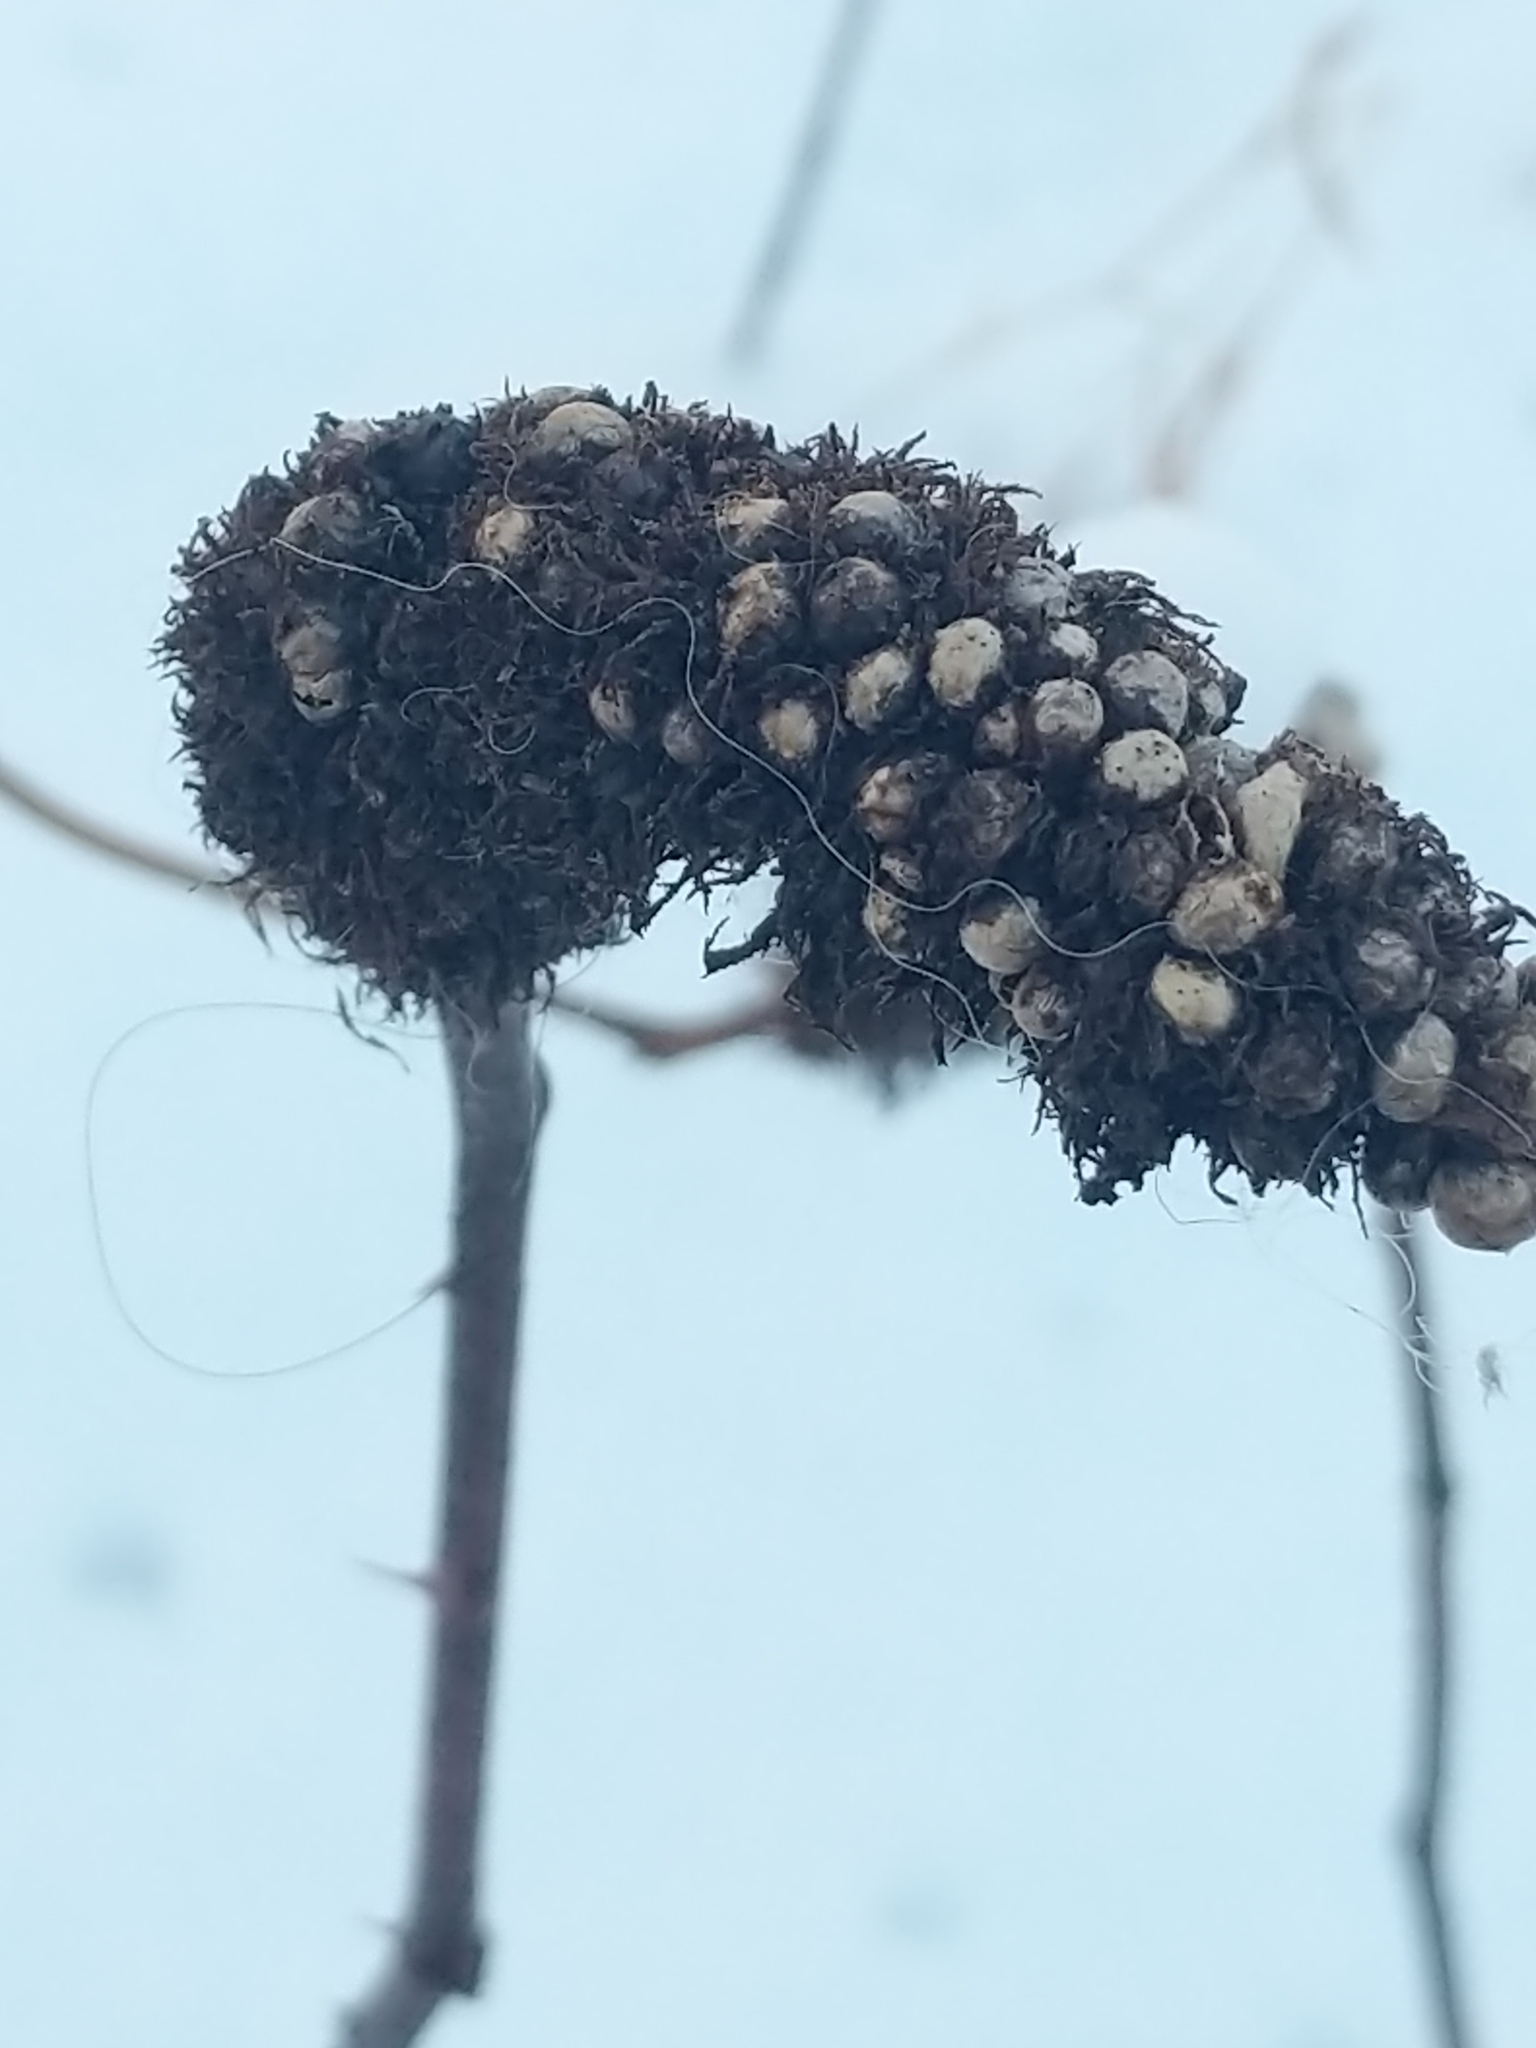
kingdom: Animalia
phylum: Arthropoda
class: Insecta
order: Hymenoptera
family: Cynipidae
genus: Diastrophus
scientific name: Diastrophus
